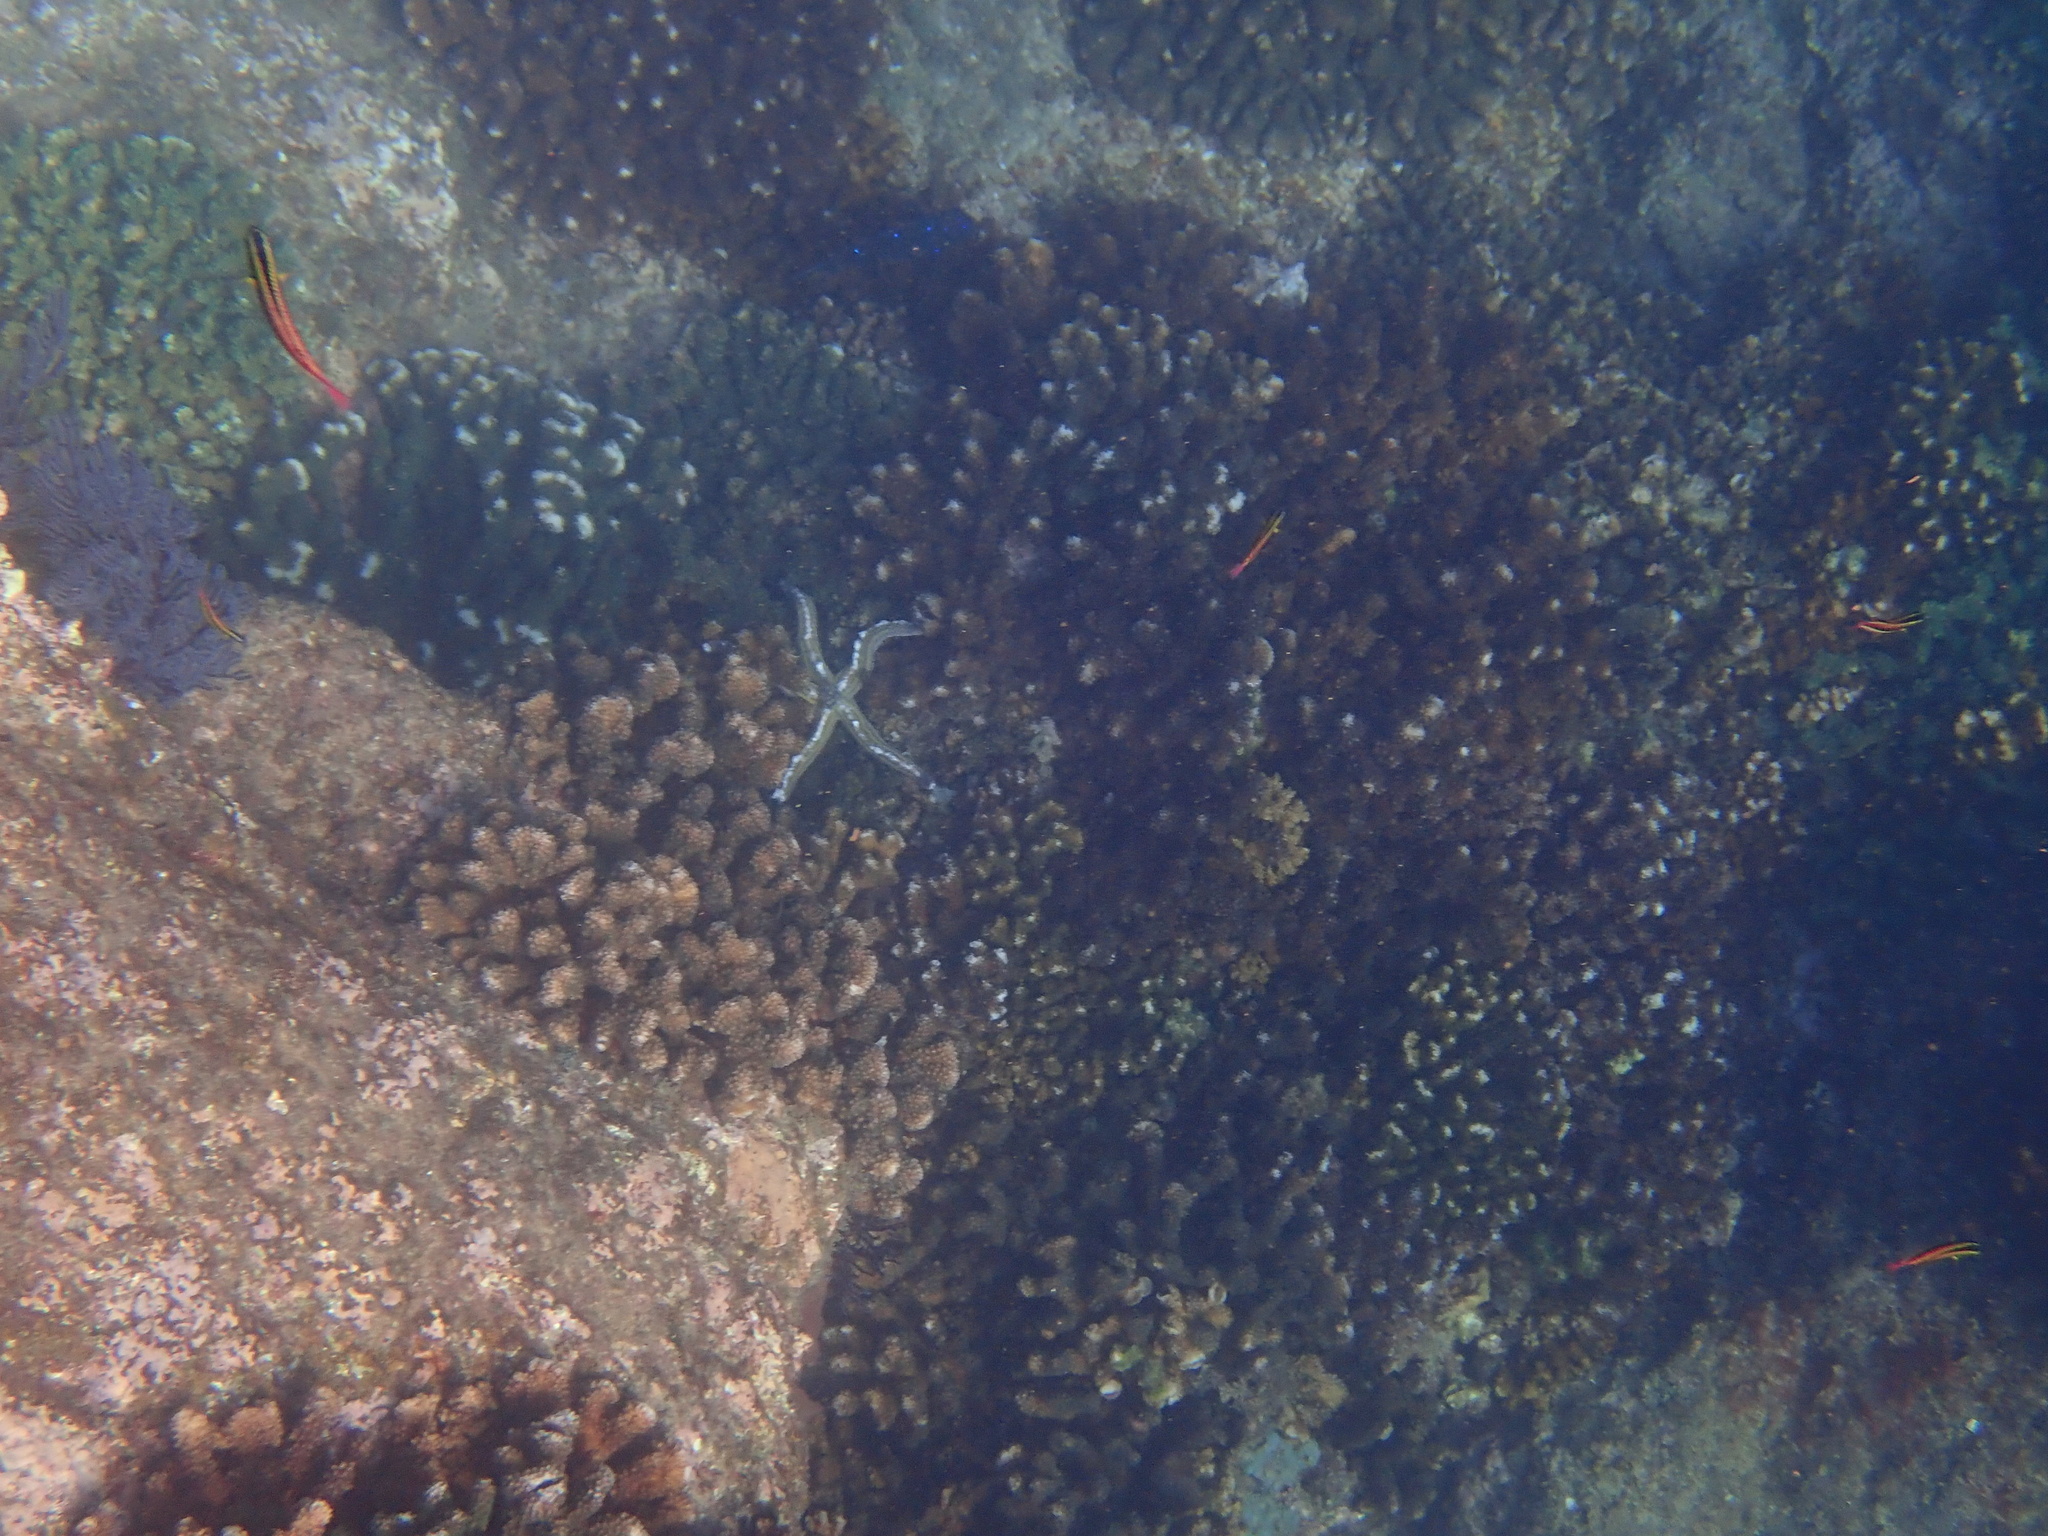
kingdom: Animalia
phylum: Echinodermata
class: Asteroidea
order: Valvatida
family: Ophidiasteridae
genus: Pharia
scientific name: Pharia pyramidata
